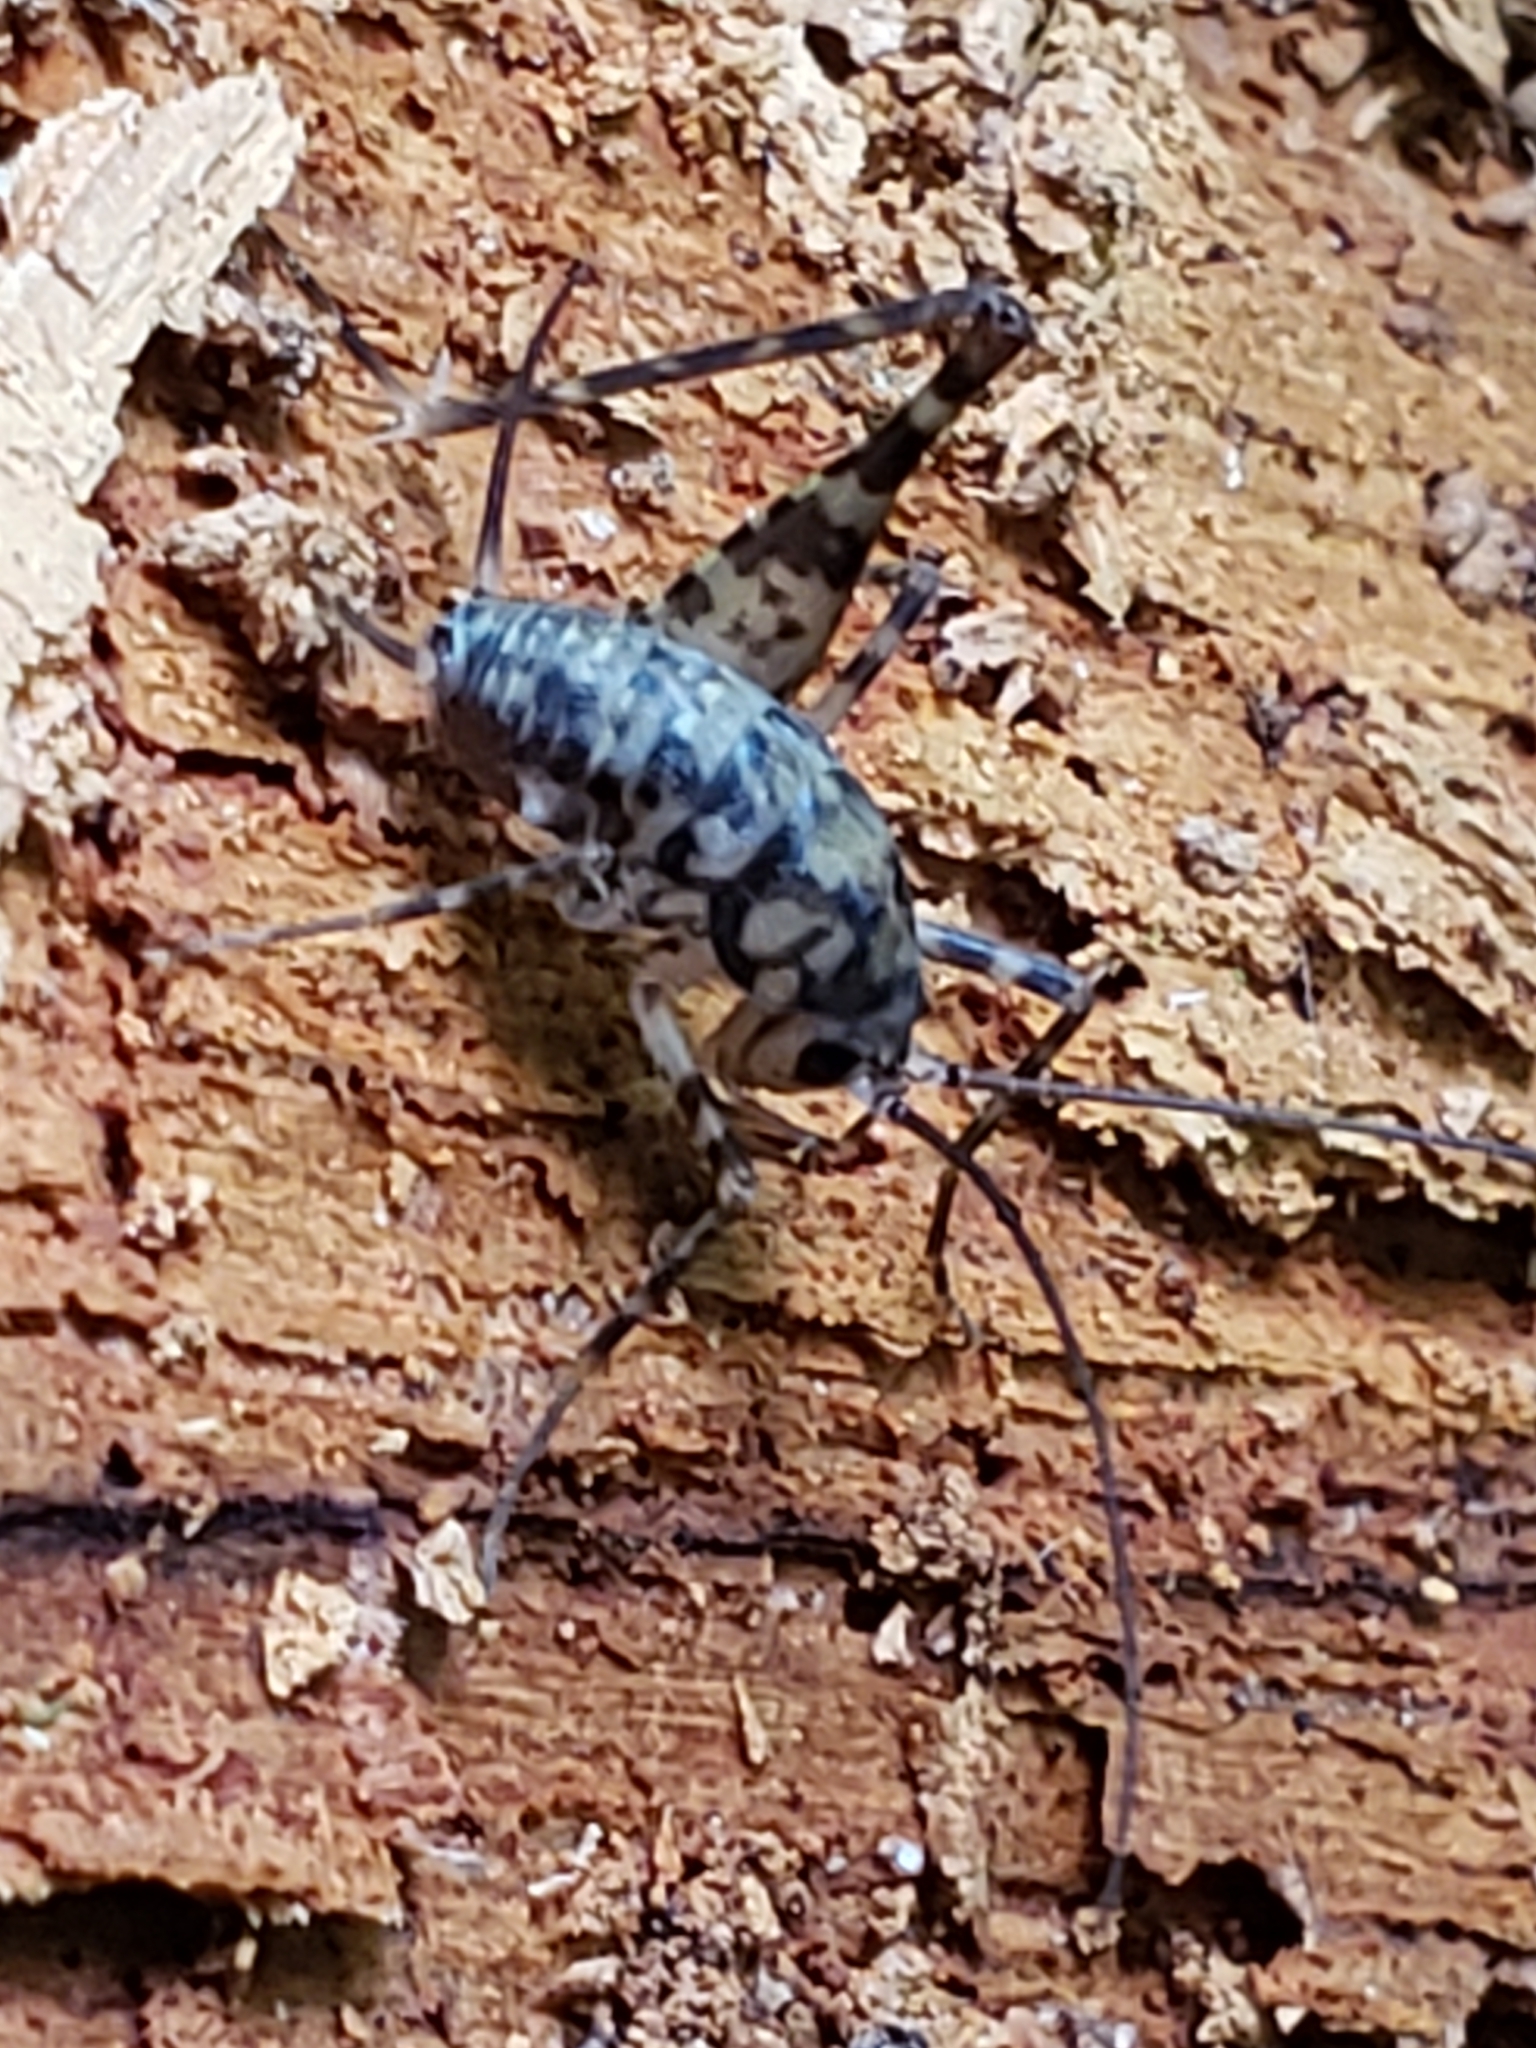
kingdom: Animalia
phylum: Arthropoda
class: Insecta
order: Orthoptera
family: Rhaphidophoridae
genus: Tachycines
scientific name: Tachycines asynamorus
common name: Greenhouse camel cricket
